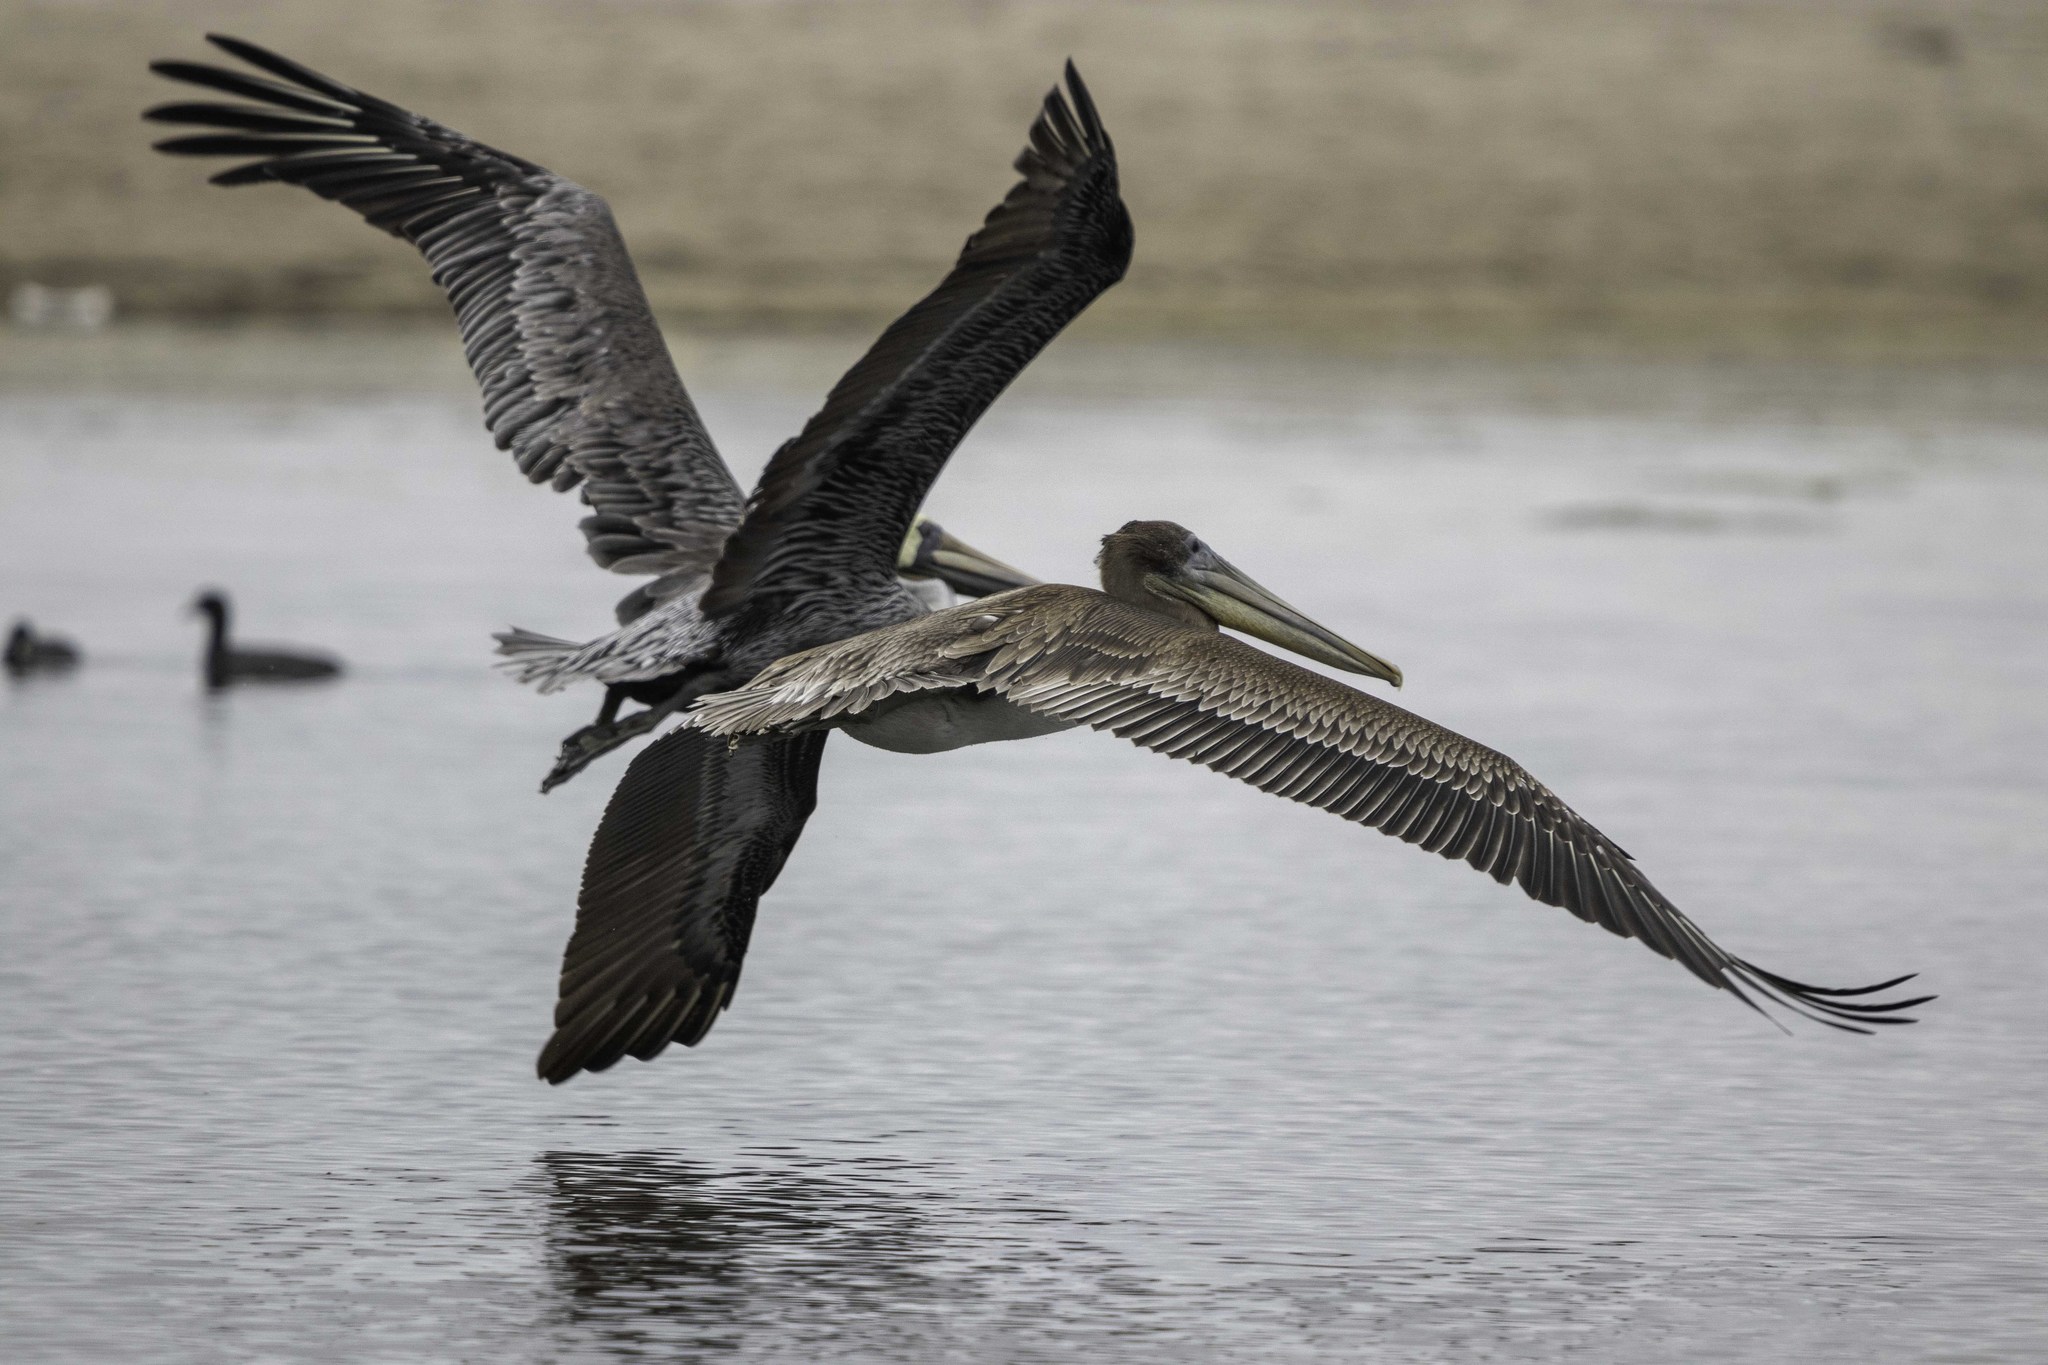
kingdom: Animalia
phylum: Chordata
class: Aves
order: Pelecaniformes
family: Pelecanidae
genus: Pelecanus
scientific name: Pelecanus occidentalis
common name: Brown pelican
